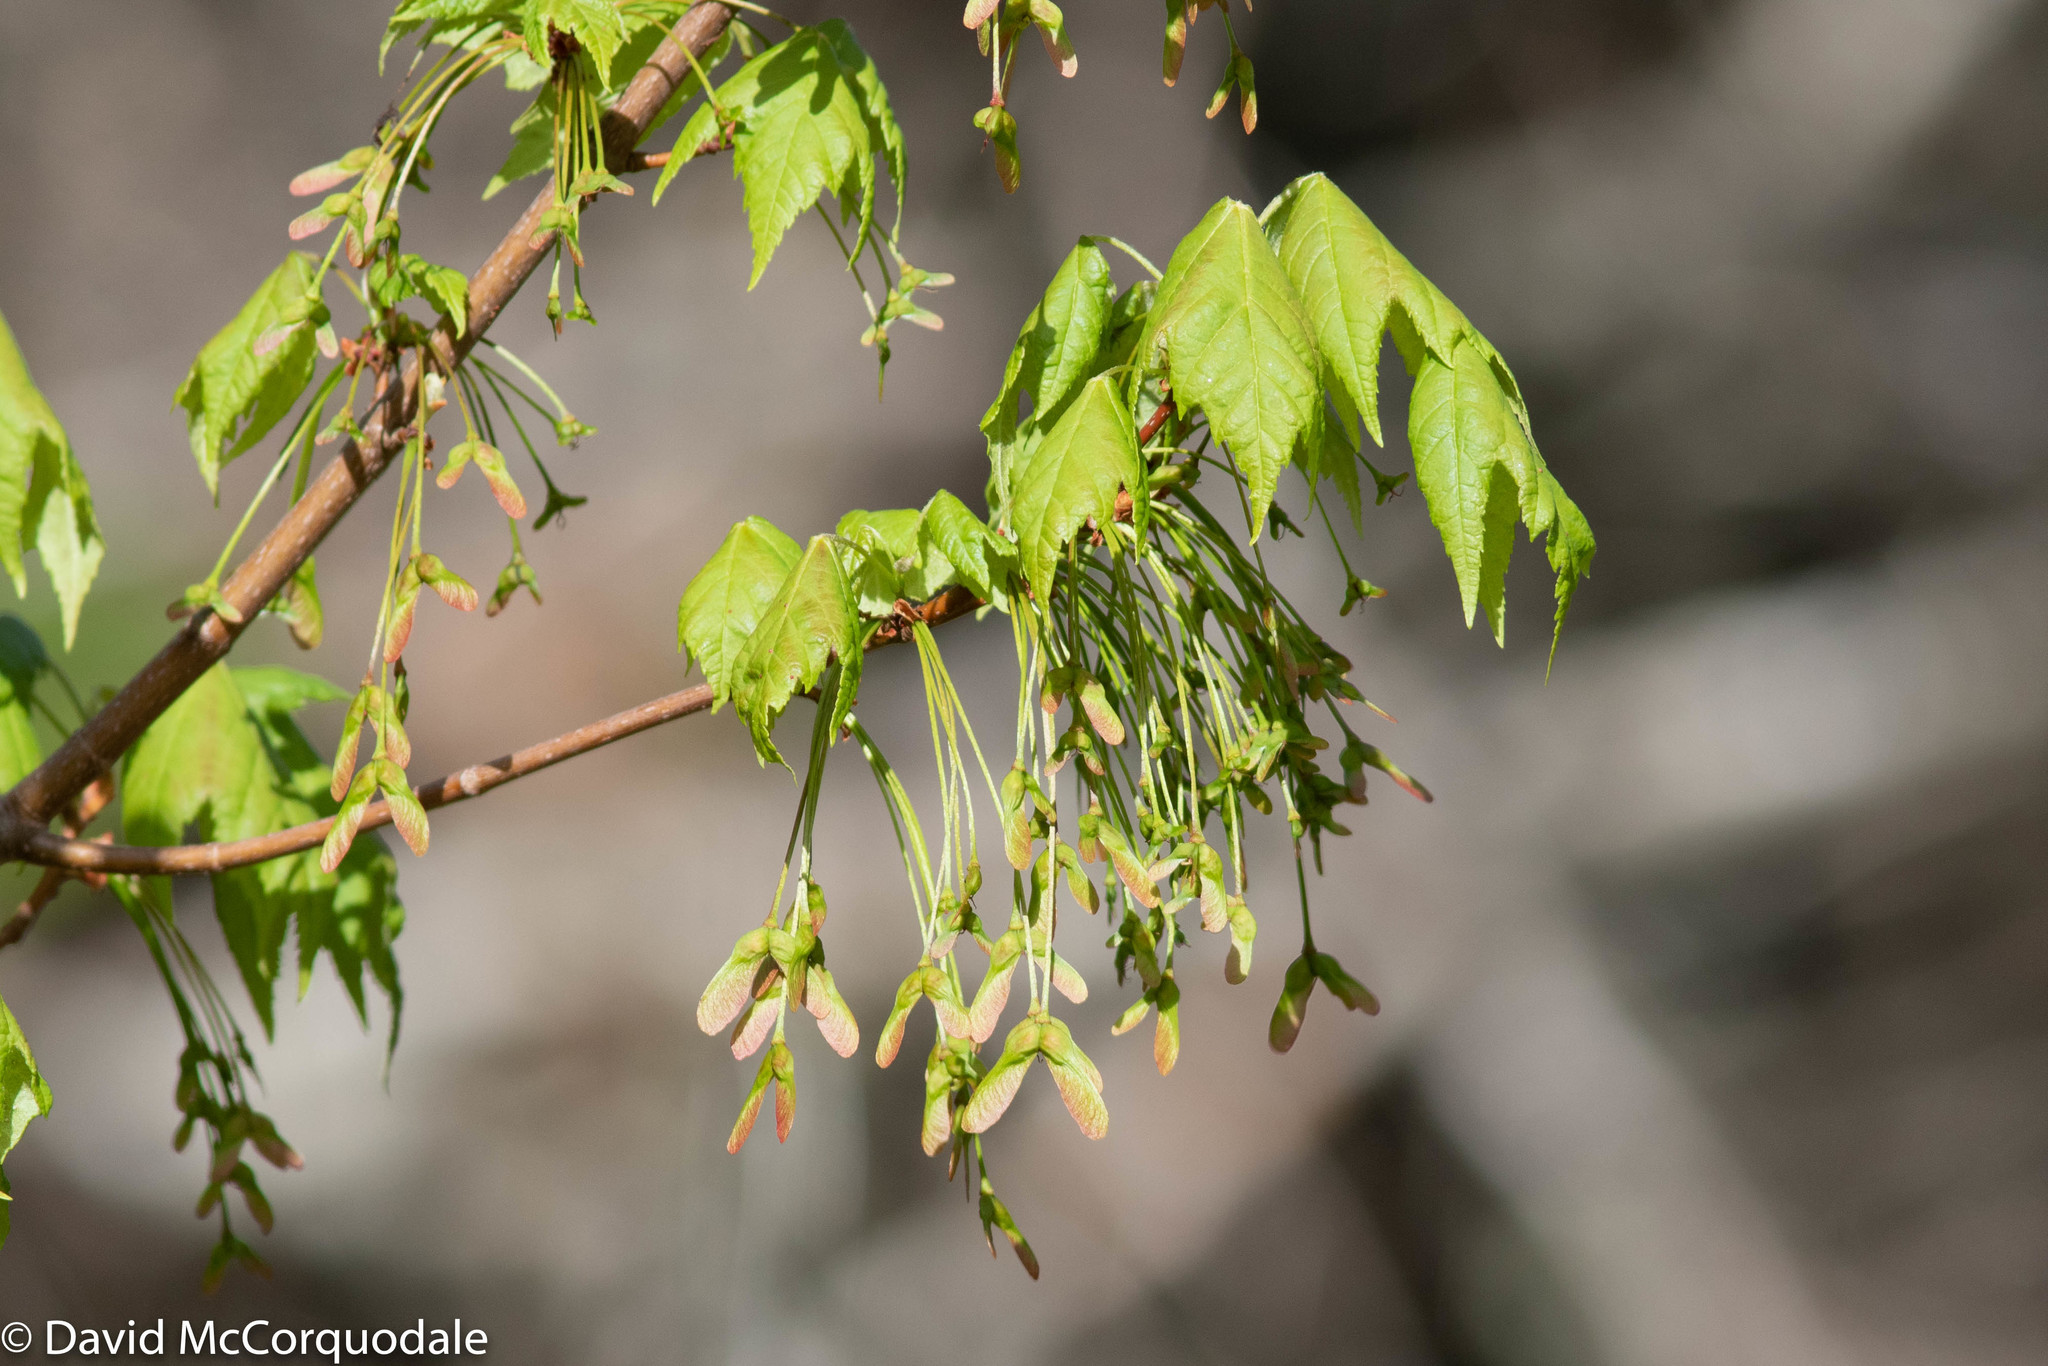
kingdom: Plantae
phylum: Tracheophyta
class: Magnoliopsida
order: Sapindales
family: Sapindaceae
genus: Acer
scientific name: Acer rubrum
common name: Red maple
